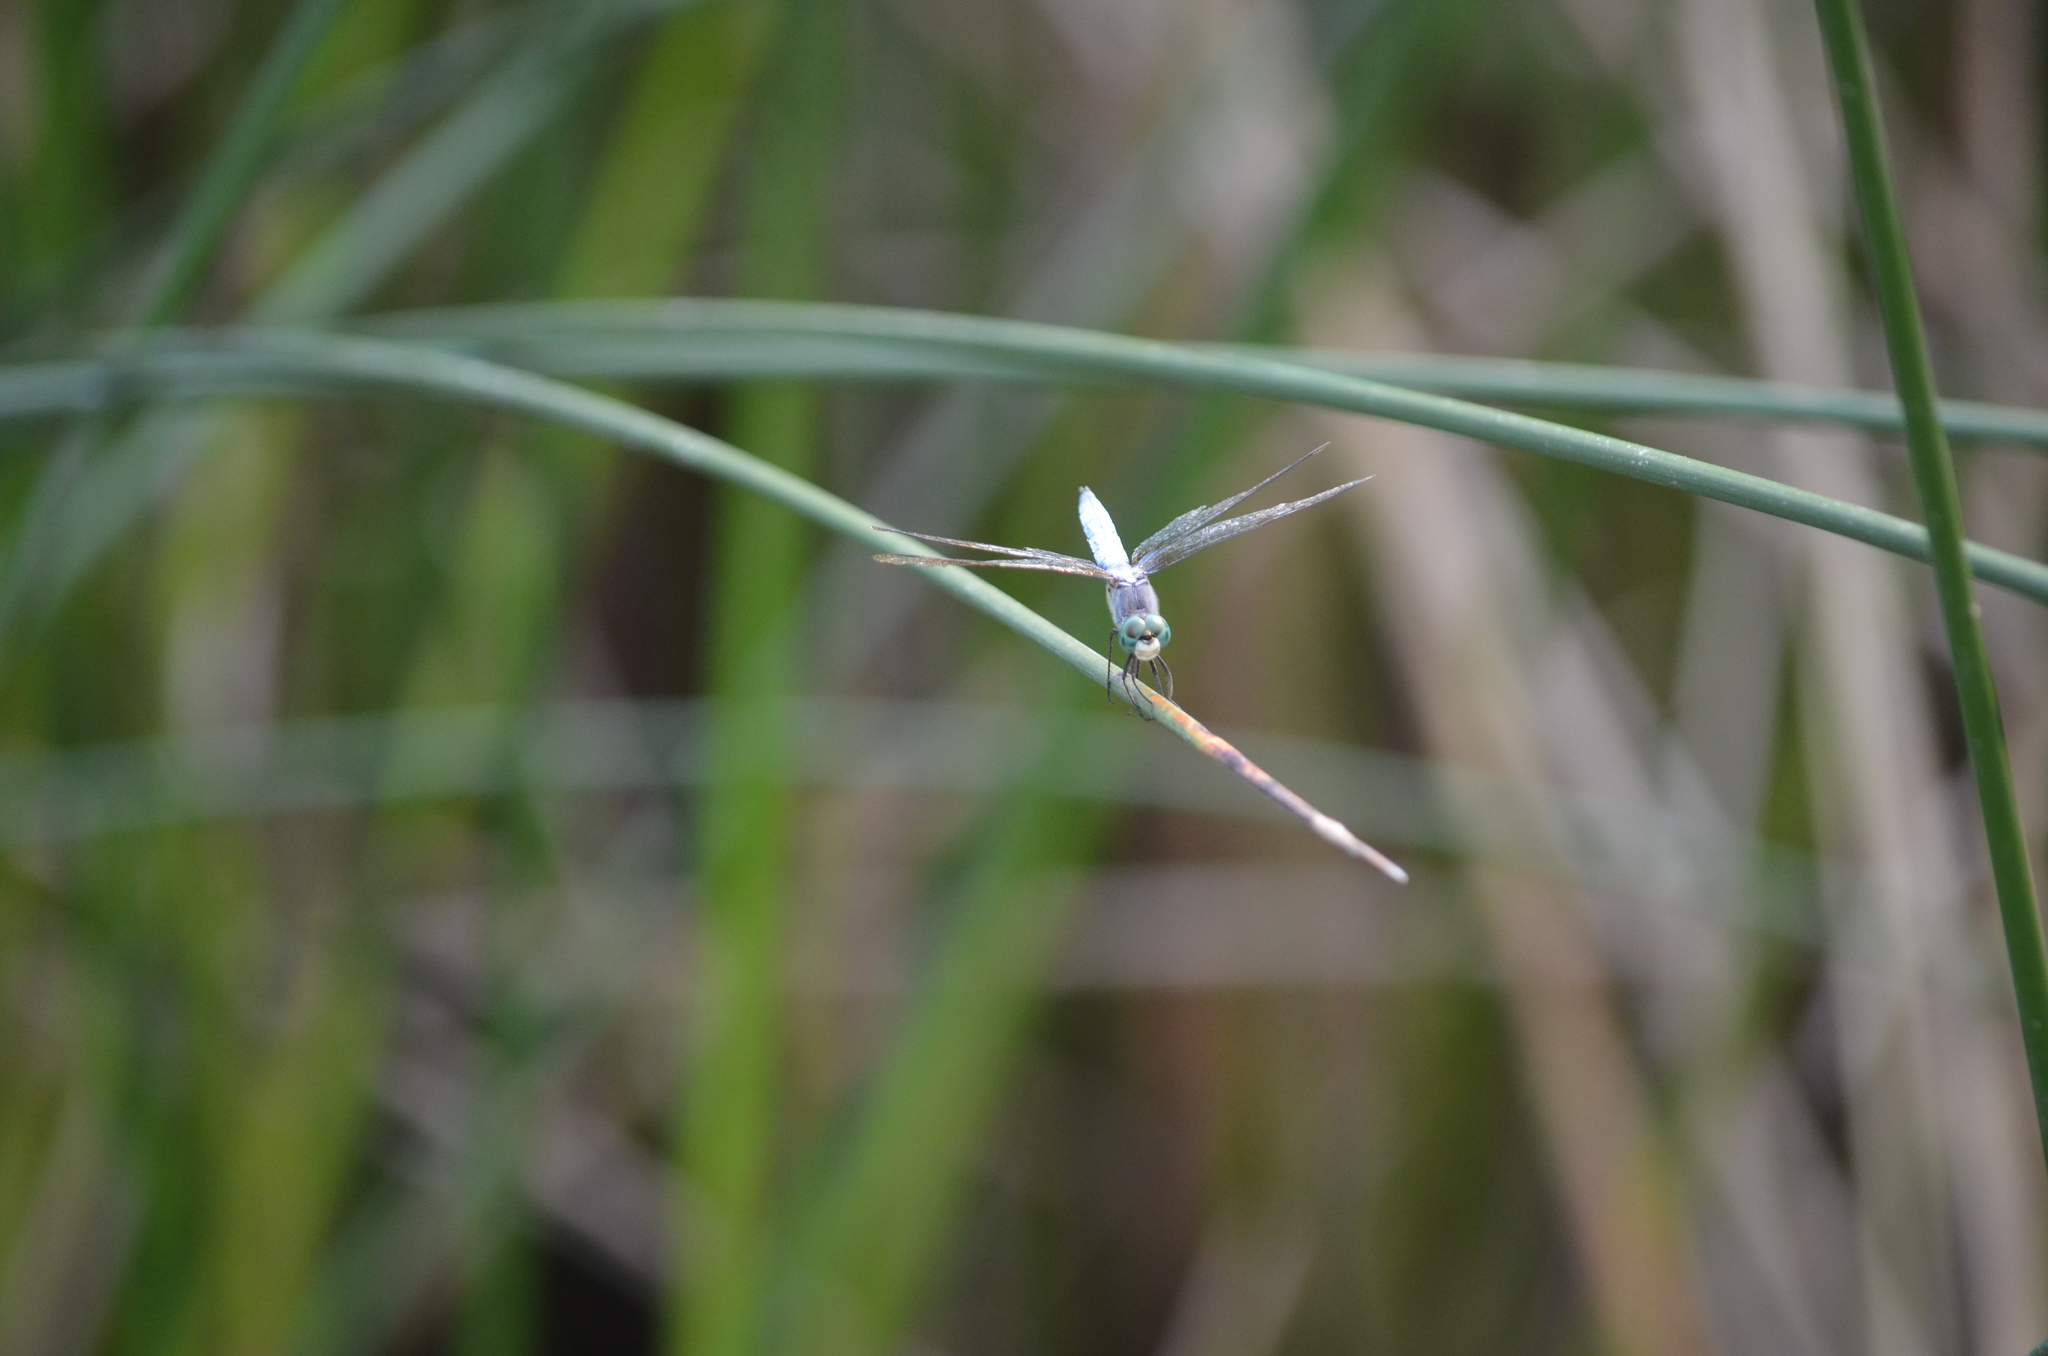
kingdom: Animalia
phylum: Arthropoda
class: Insecta
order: Odonata
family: Libellulidae
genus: Pachydiplax
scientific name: Pachydiplax longipennis
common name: Blue dasher
